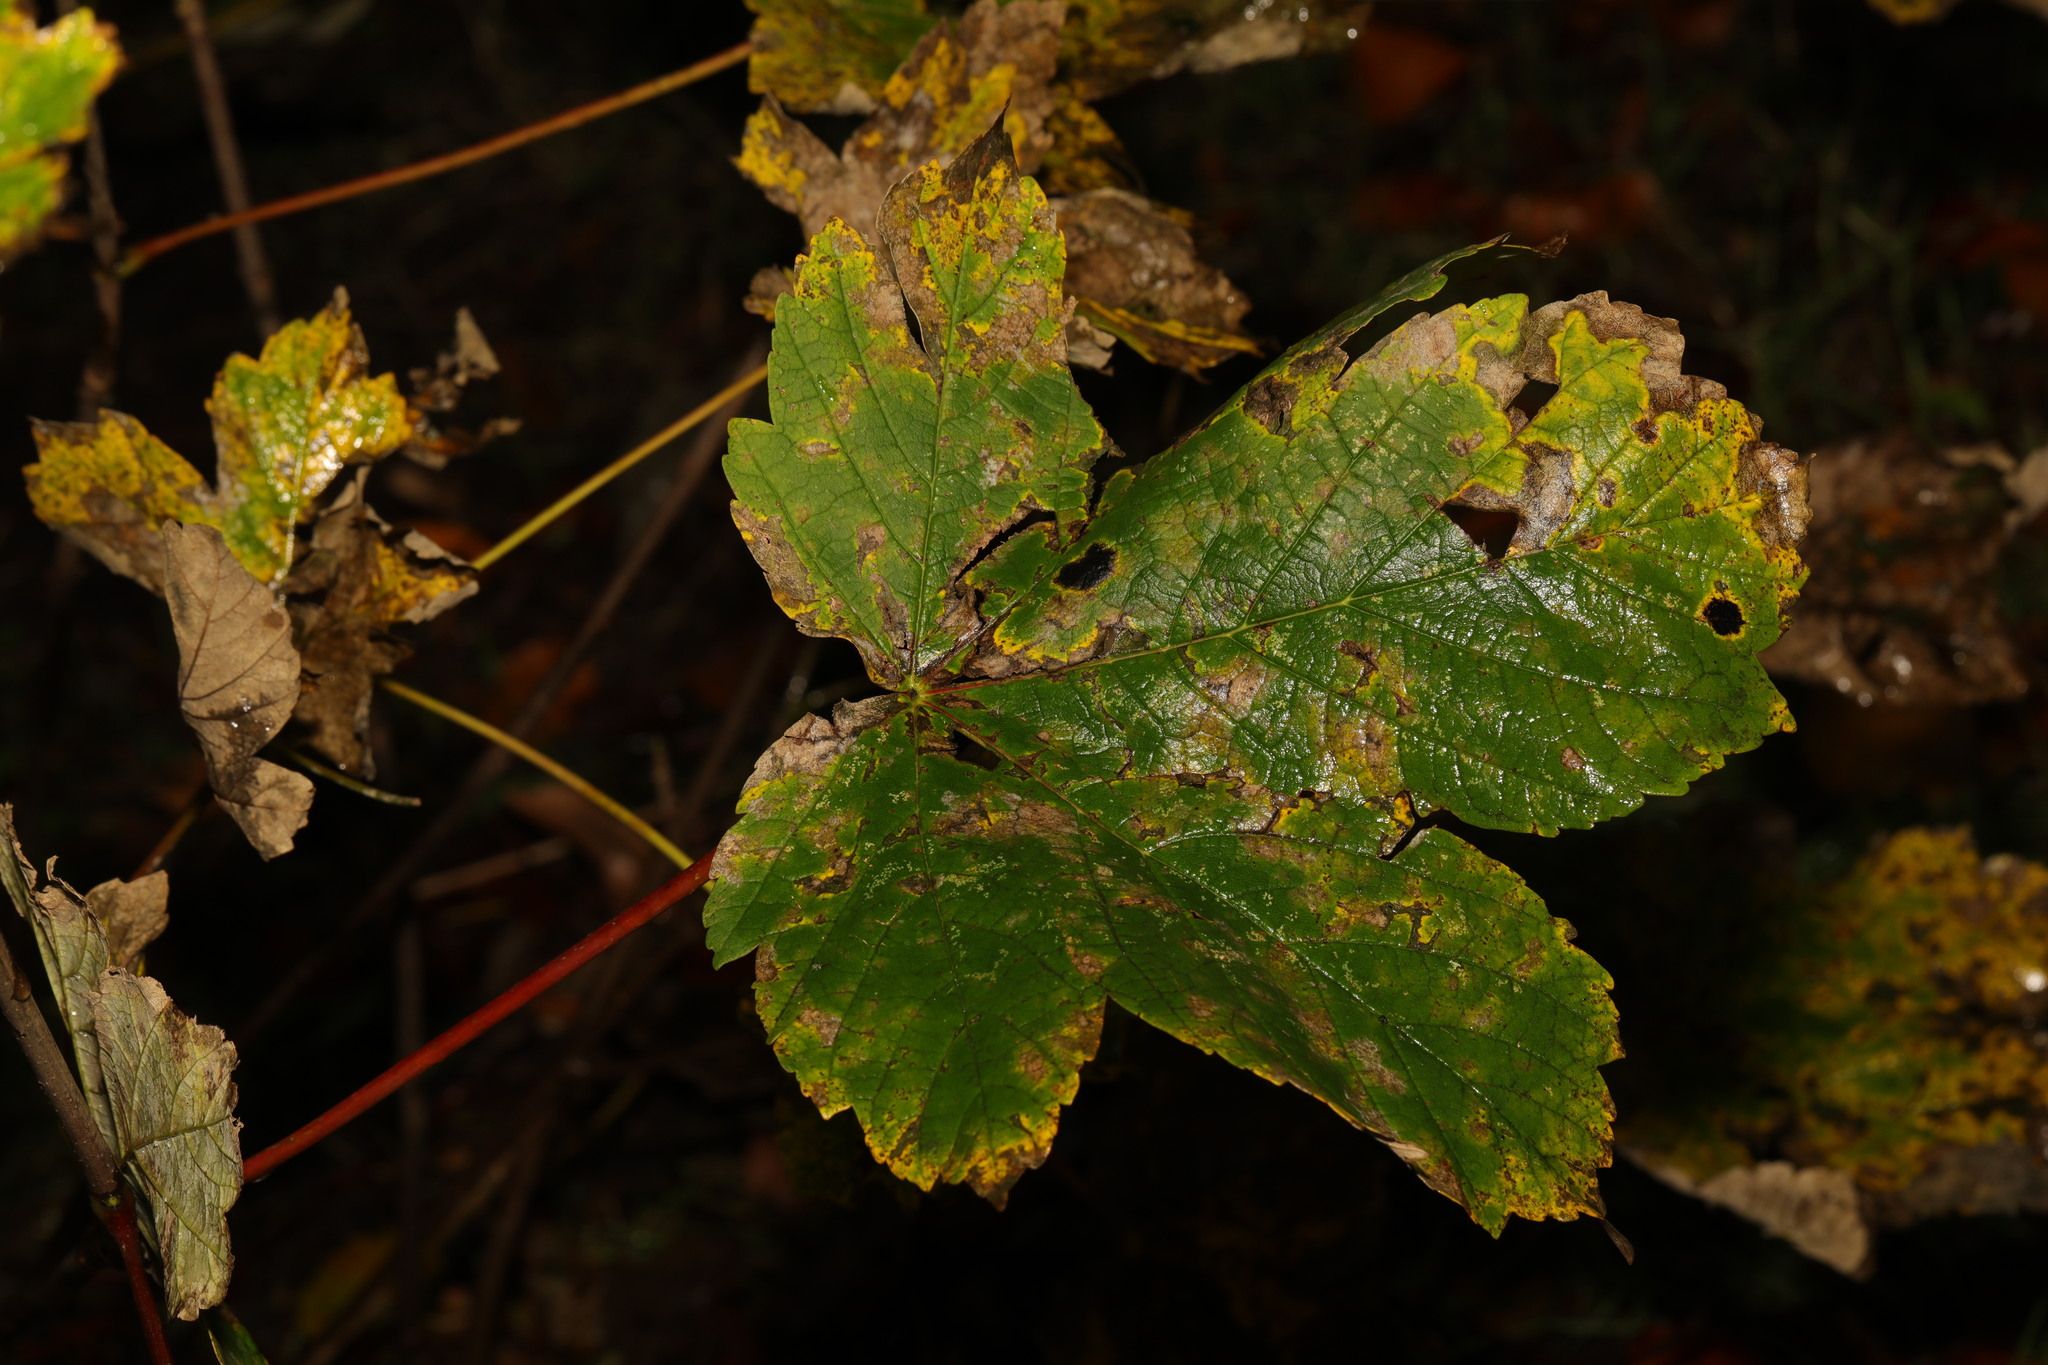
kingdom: Plantae
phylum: Tracheophyta
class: Magnoliopsida
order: Sapindales
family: Sapindaceae
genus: Acer
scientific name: Acer pseudoplatanus
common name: Sycamore
